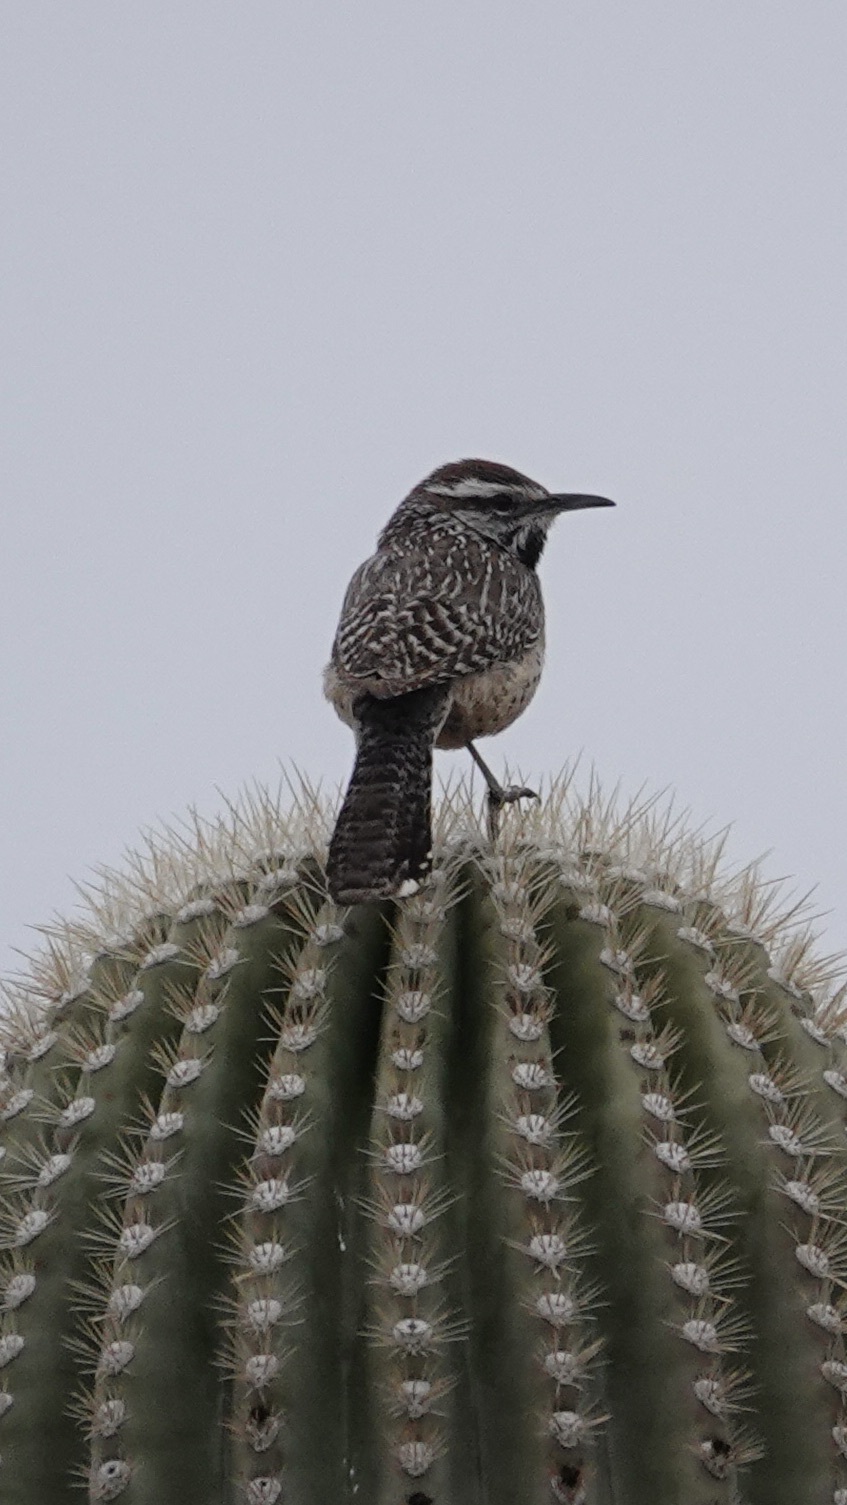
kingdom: Animalia
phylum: Chordata
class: Aves
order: Passeriformes
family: Troglodytidae
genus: Campylorhynchus
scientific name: Campylorhynchus brunneicapillus
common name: Cactus wren
